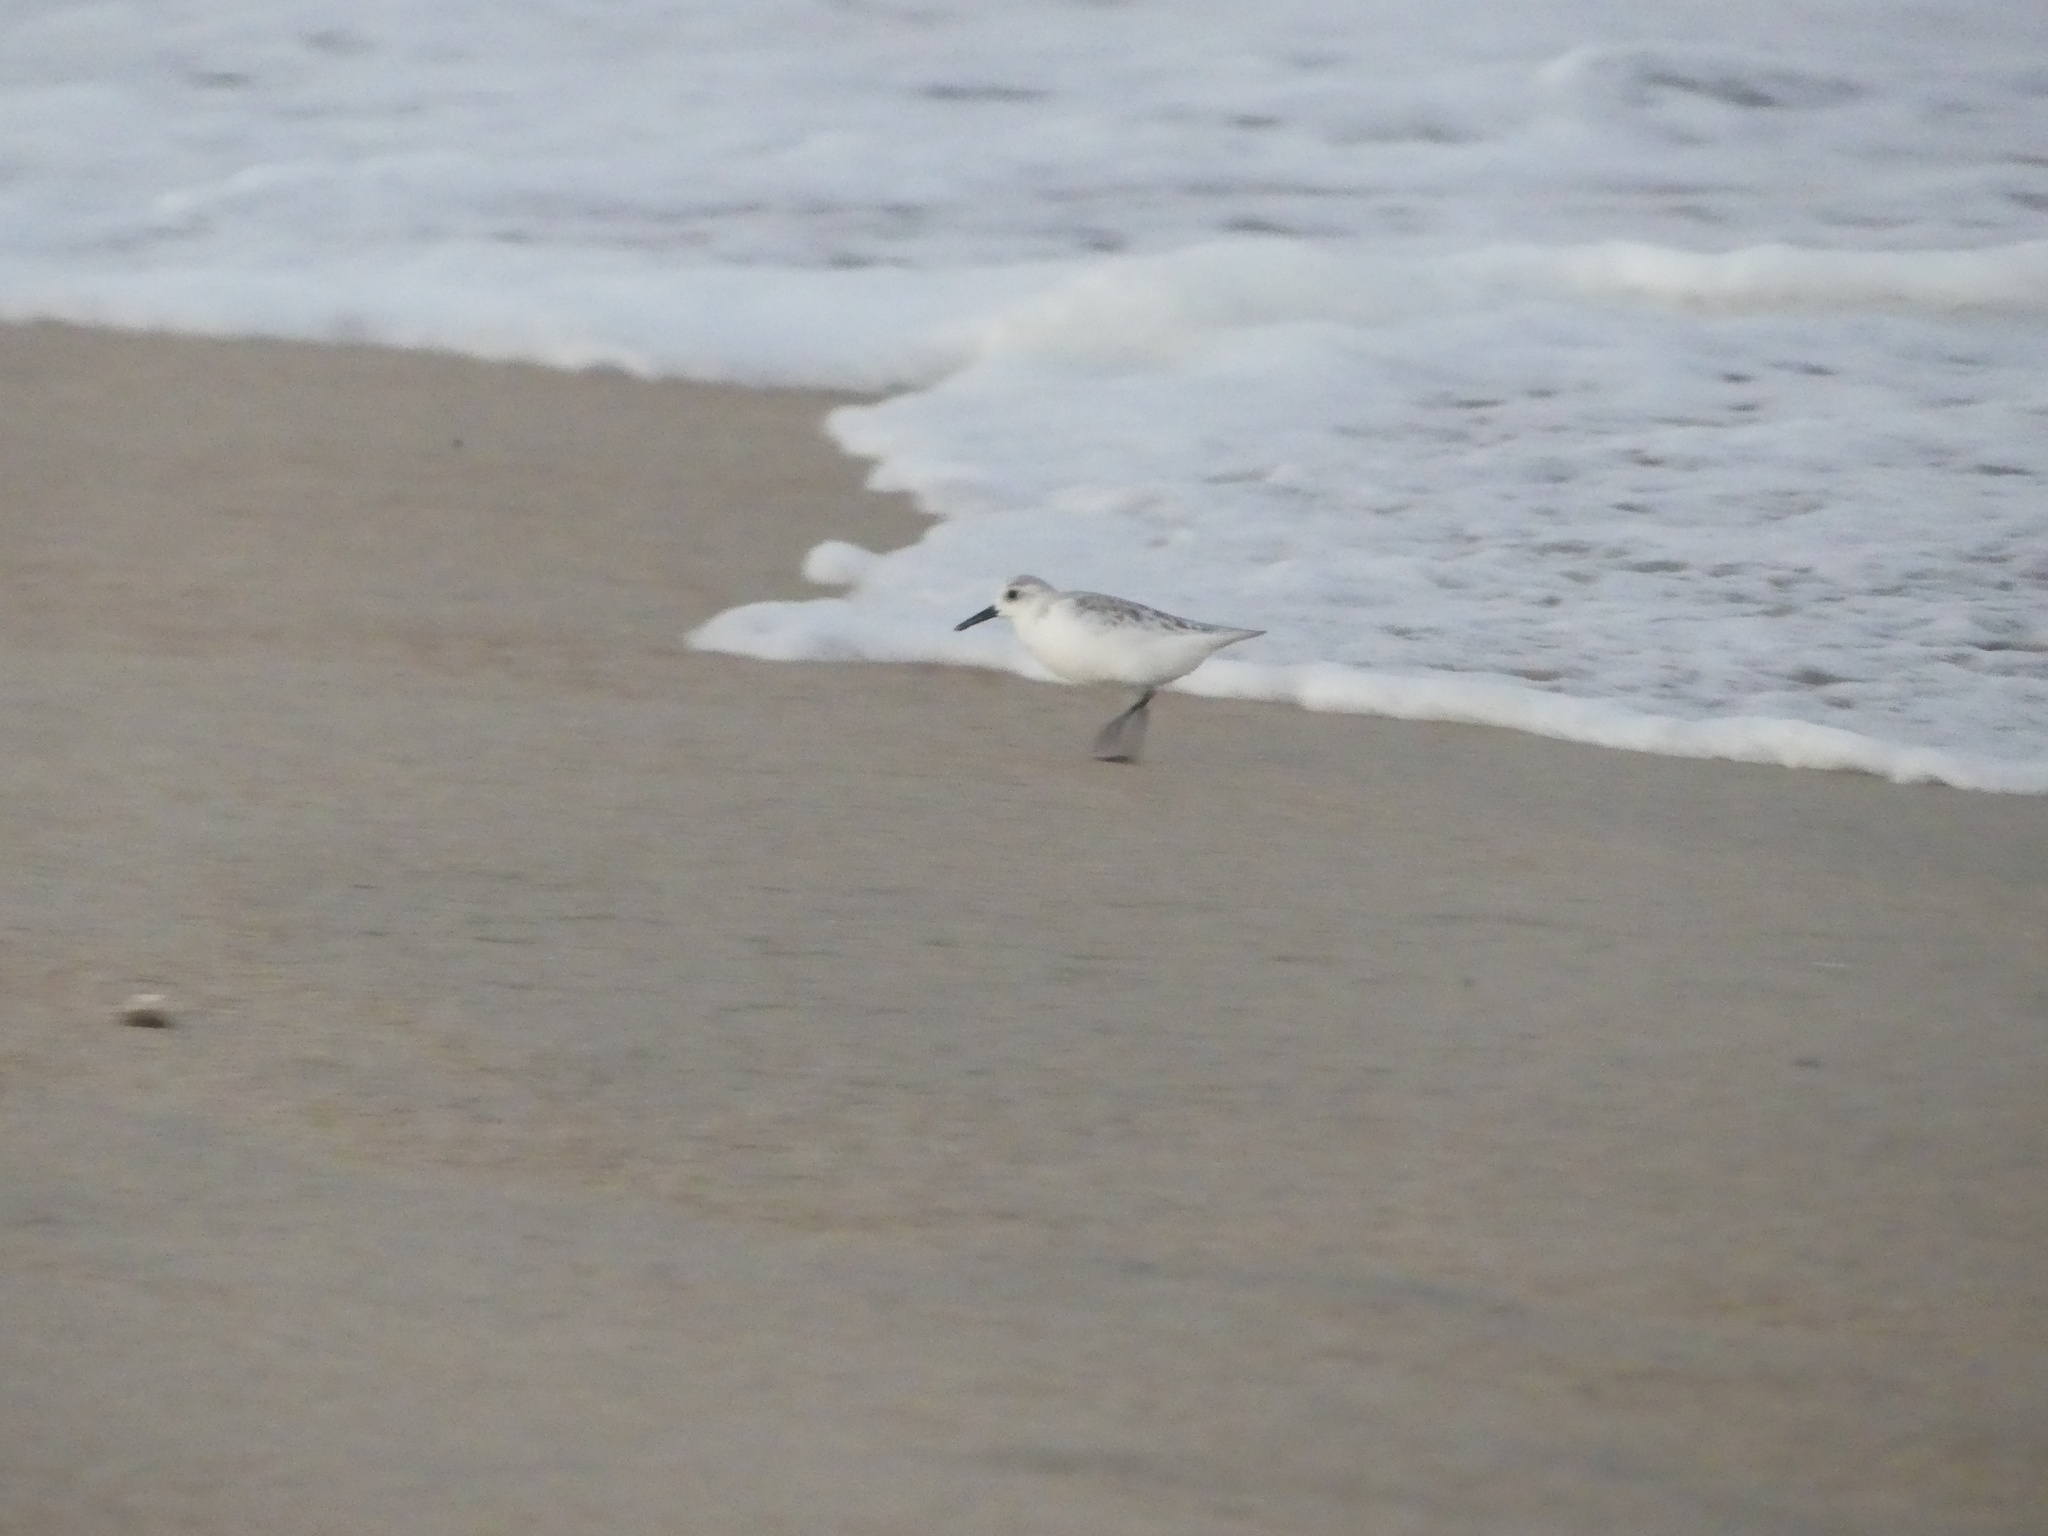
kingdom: Animalia
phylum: Chordata
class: Aves
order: Charadriiformes
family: Scolopacidae
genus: Calidris
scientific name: Calidris alba
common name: Sanderling
